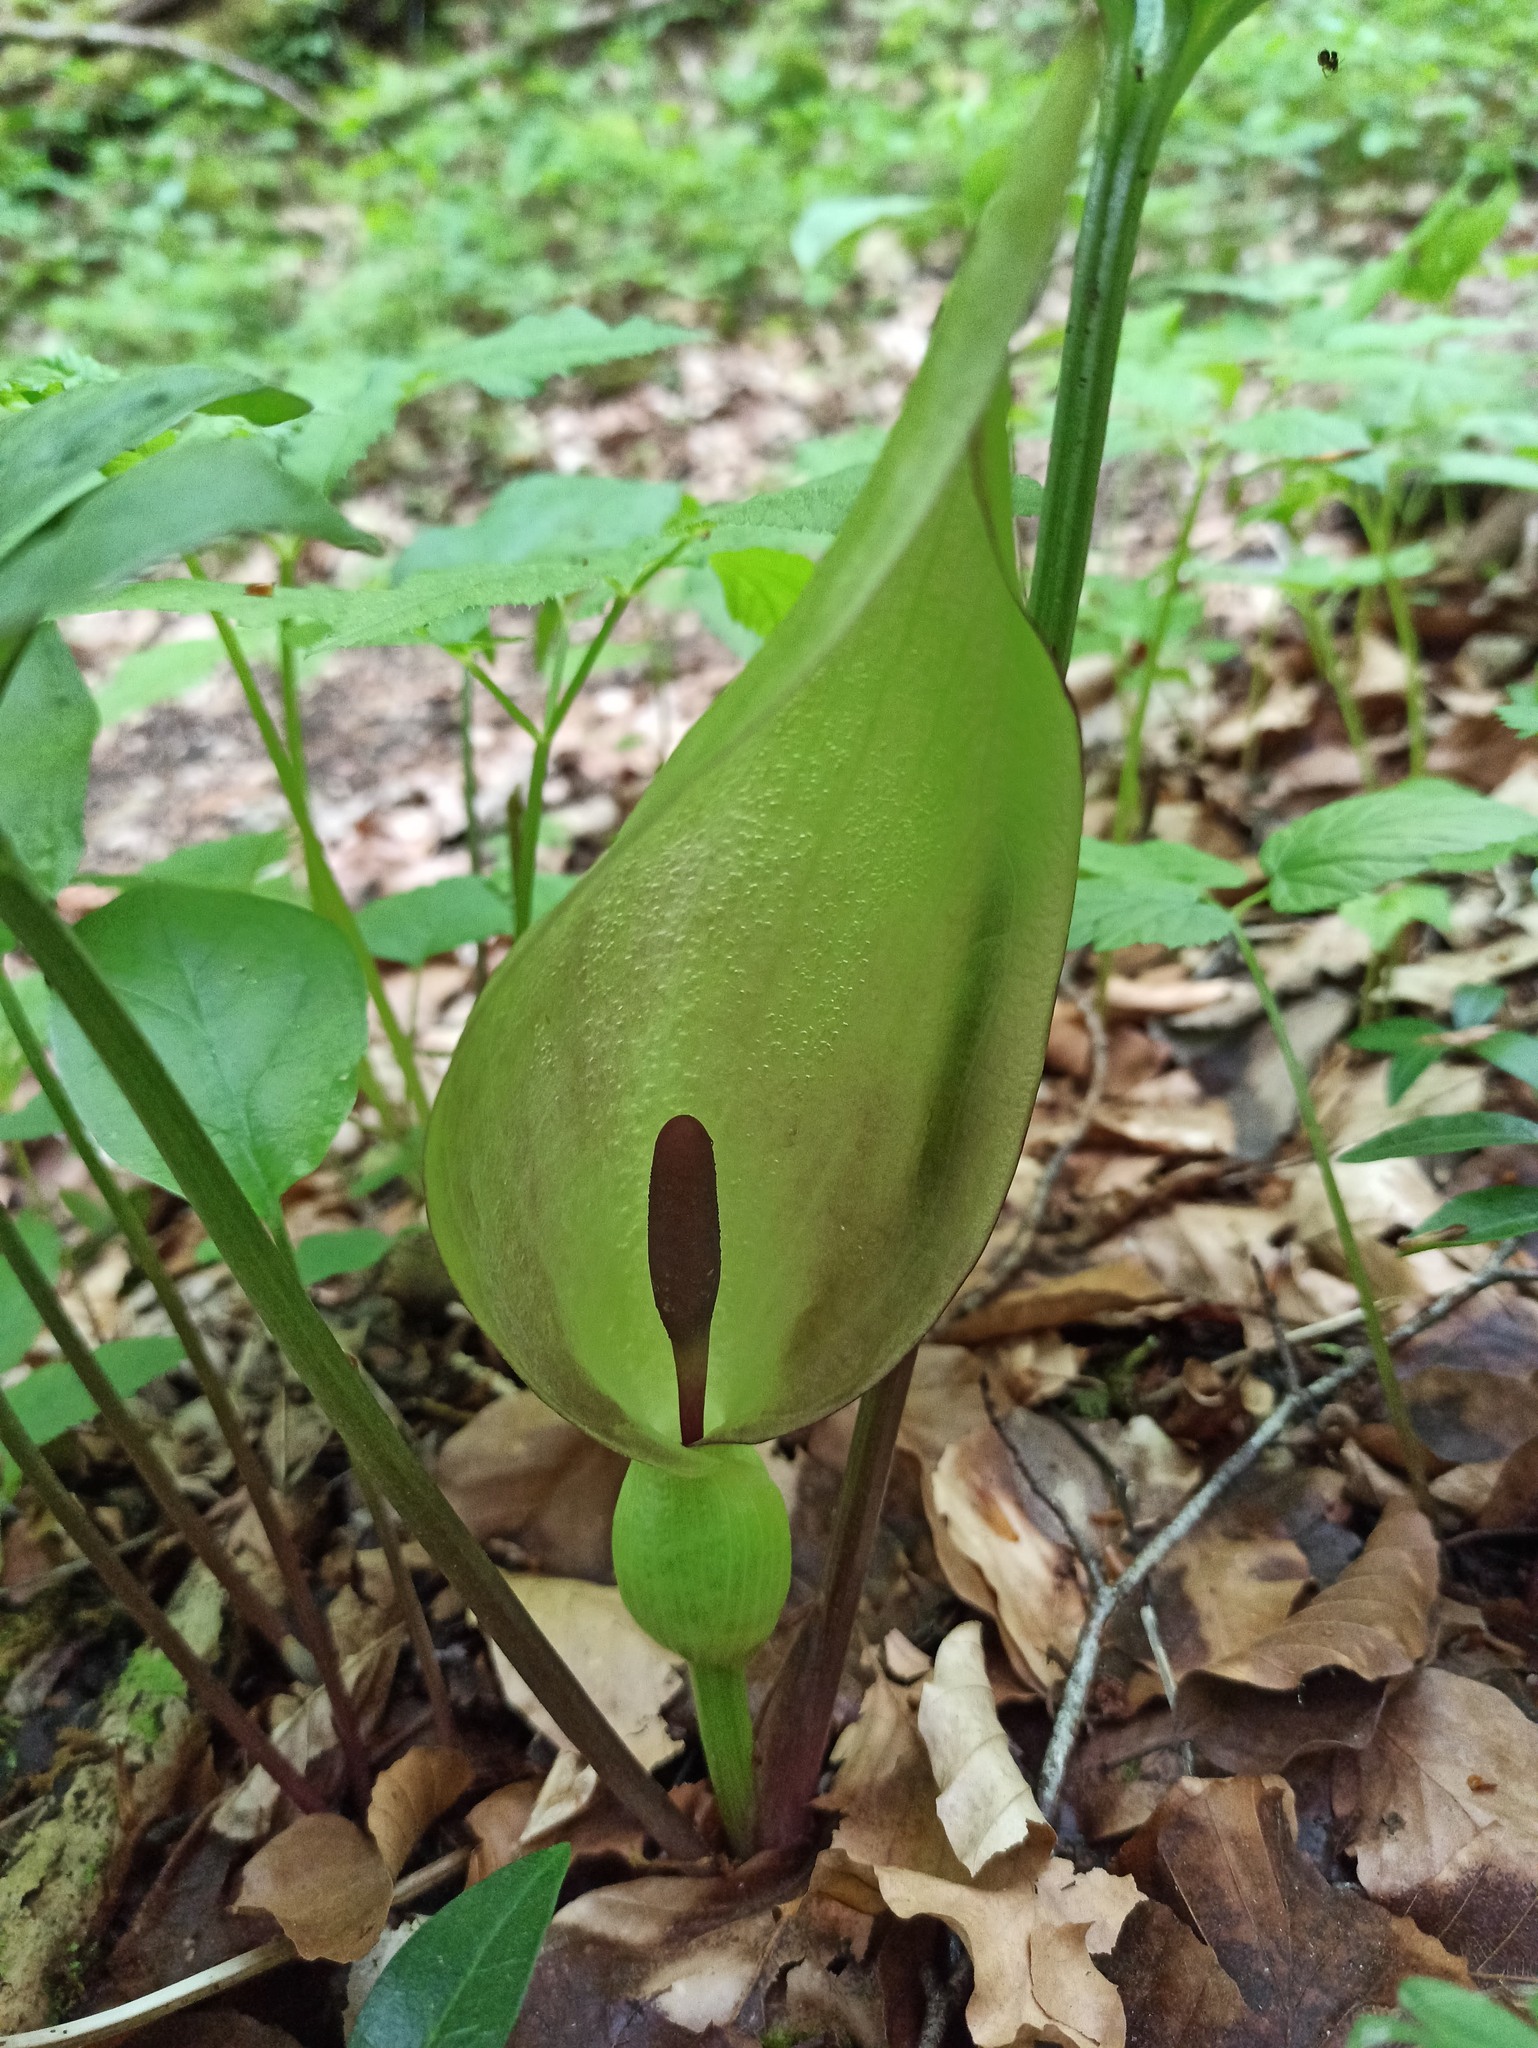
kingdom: Plantae
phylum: Tracheophyta
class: Liliopsida
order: Alismatales
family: Araceae
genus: Arum
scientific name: Arum maculatum
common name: Lords-and-ladies
